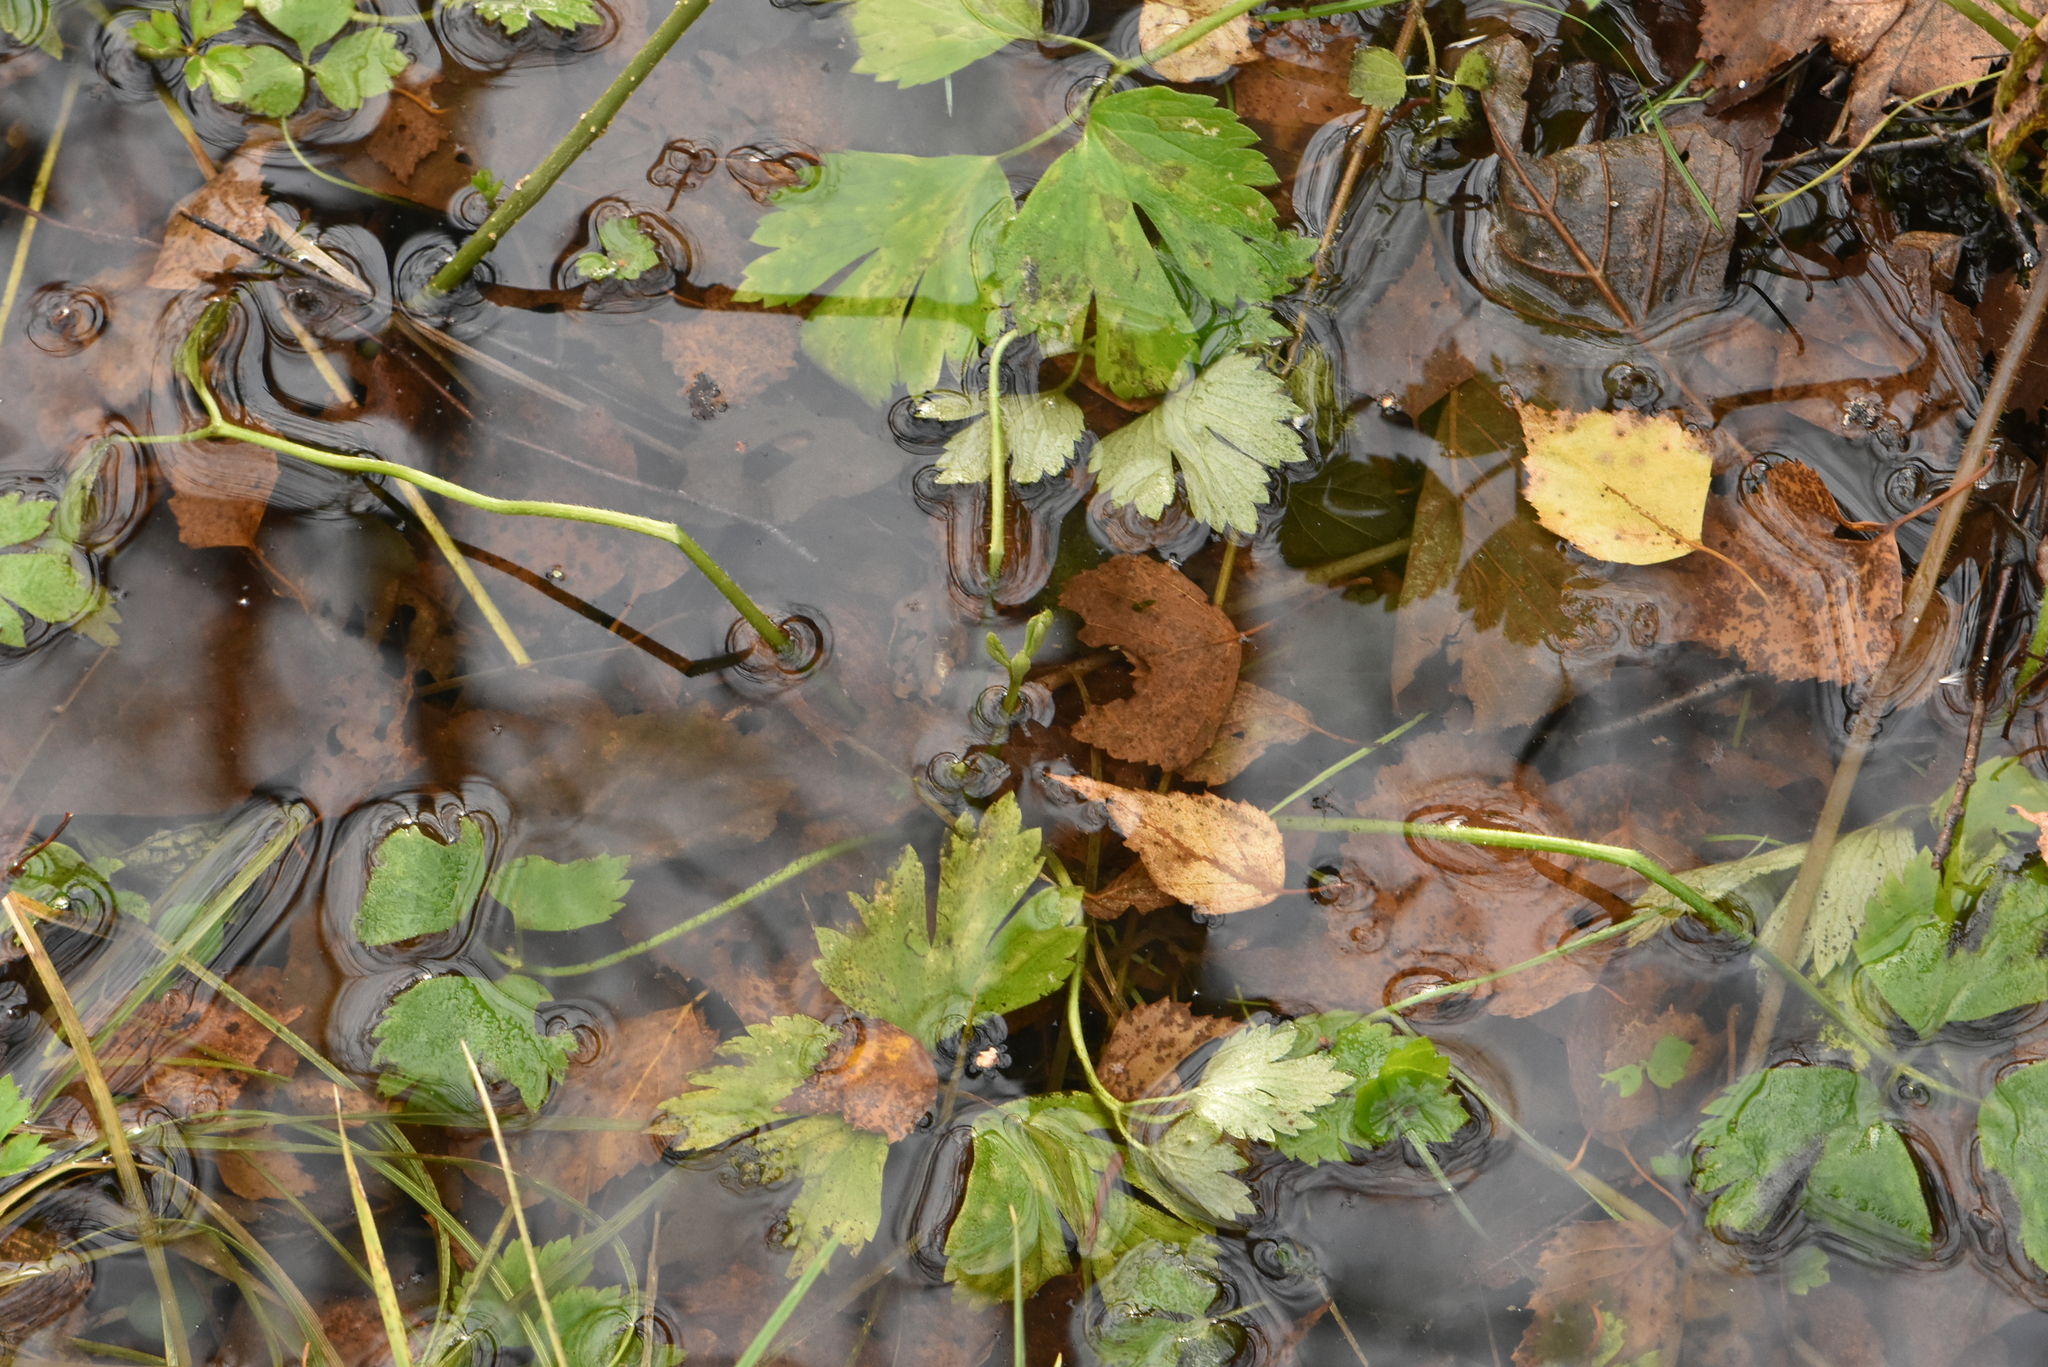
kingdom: Plantae
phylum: Tracheophyta
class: Magnoliopsida
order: Ranunculales
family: Ranunculaceae
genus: Ranunculus
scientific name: Ranunculus repens
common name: Creeping buttercup
